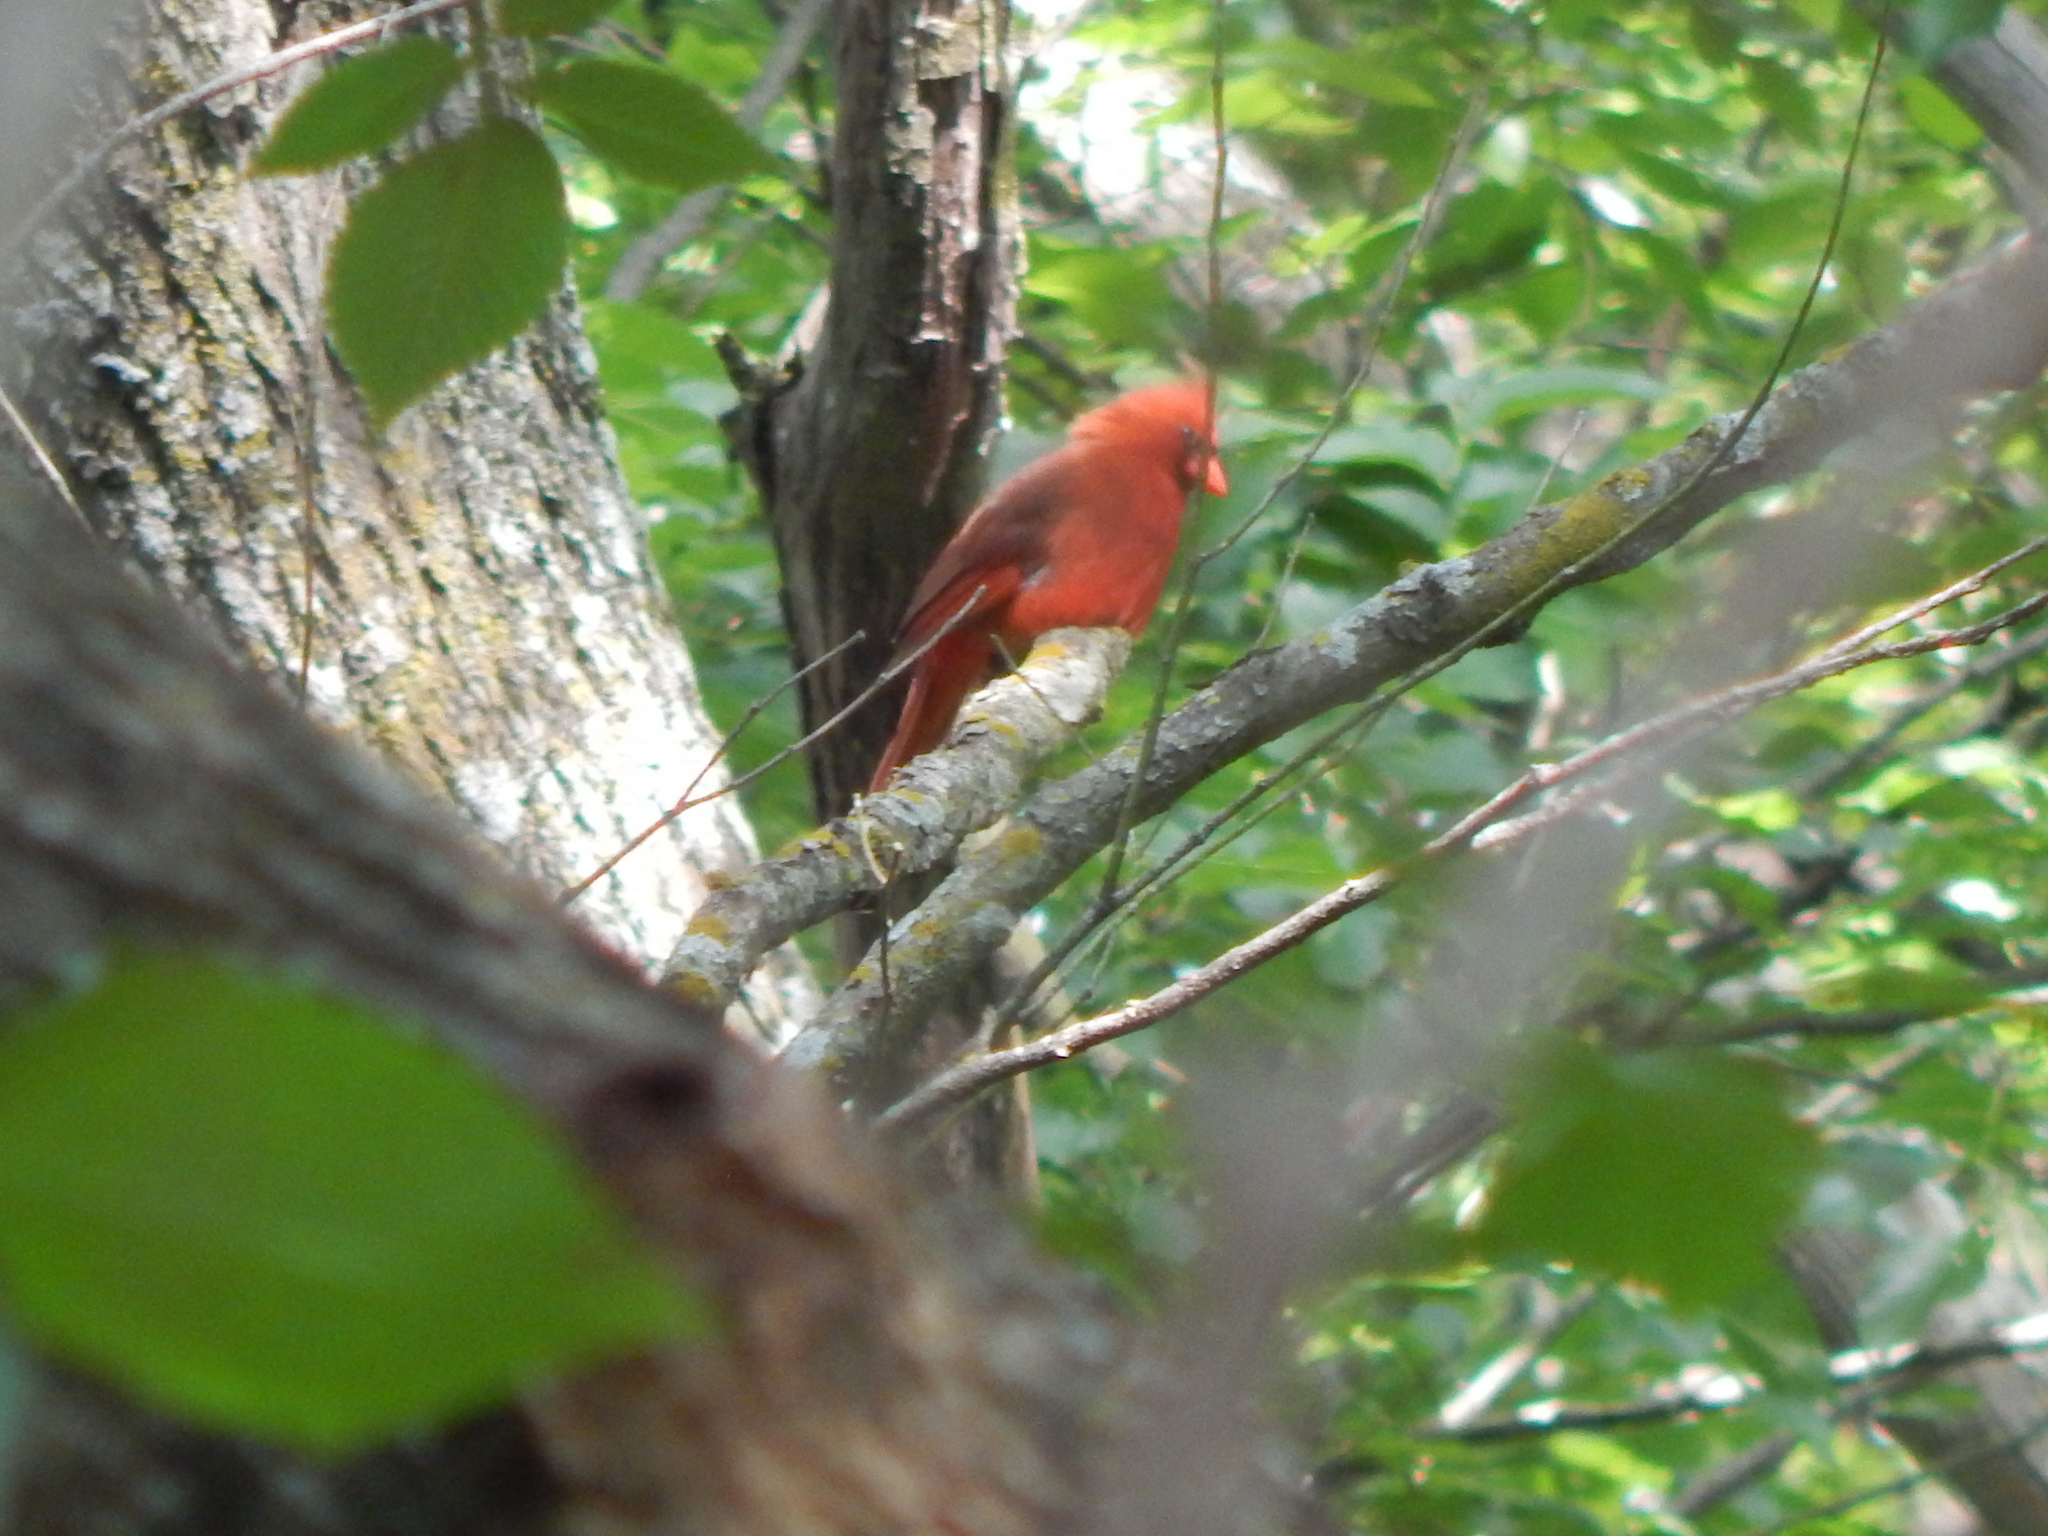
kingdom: Animalia
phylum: Chordata
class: Aves
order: Passeriformes
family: Cardinalidae
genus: Cardinalis
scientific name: Cardinalis cardinalis
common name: Northern cardinal
